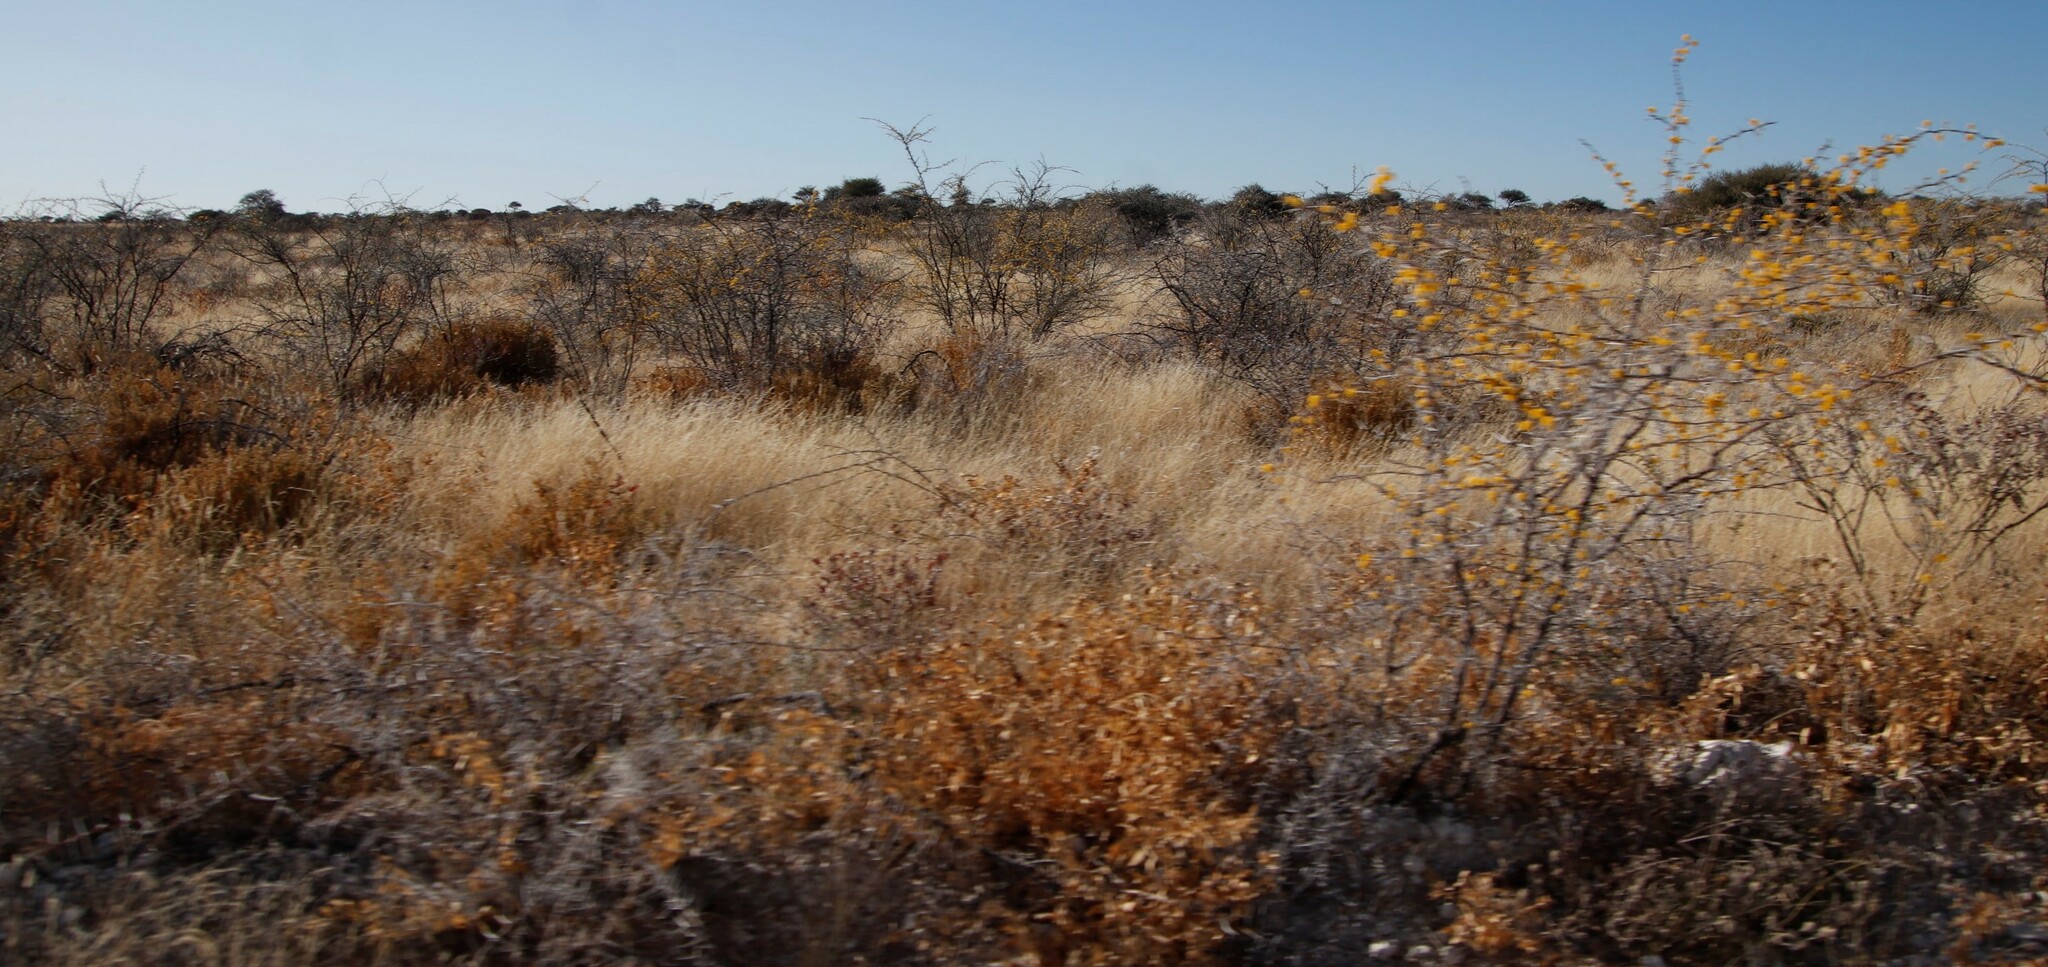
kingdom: Plantae
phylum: Tracheophyta
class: Magnoliopsida
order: Fabales
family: Fabaceae
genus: Vachellia
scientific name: Vachellia nebrownii
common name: Water acacia
